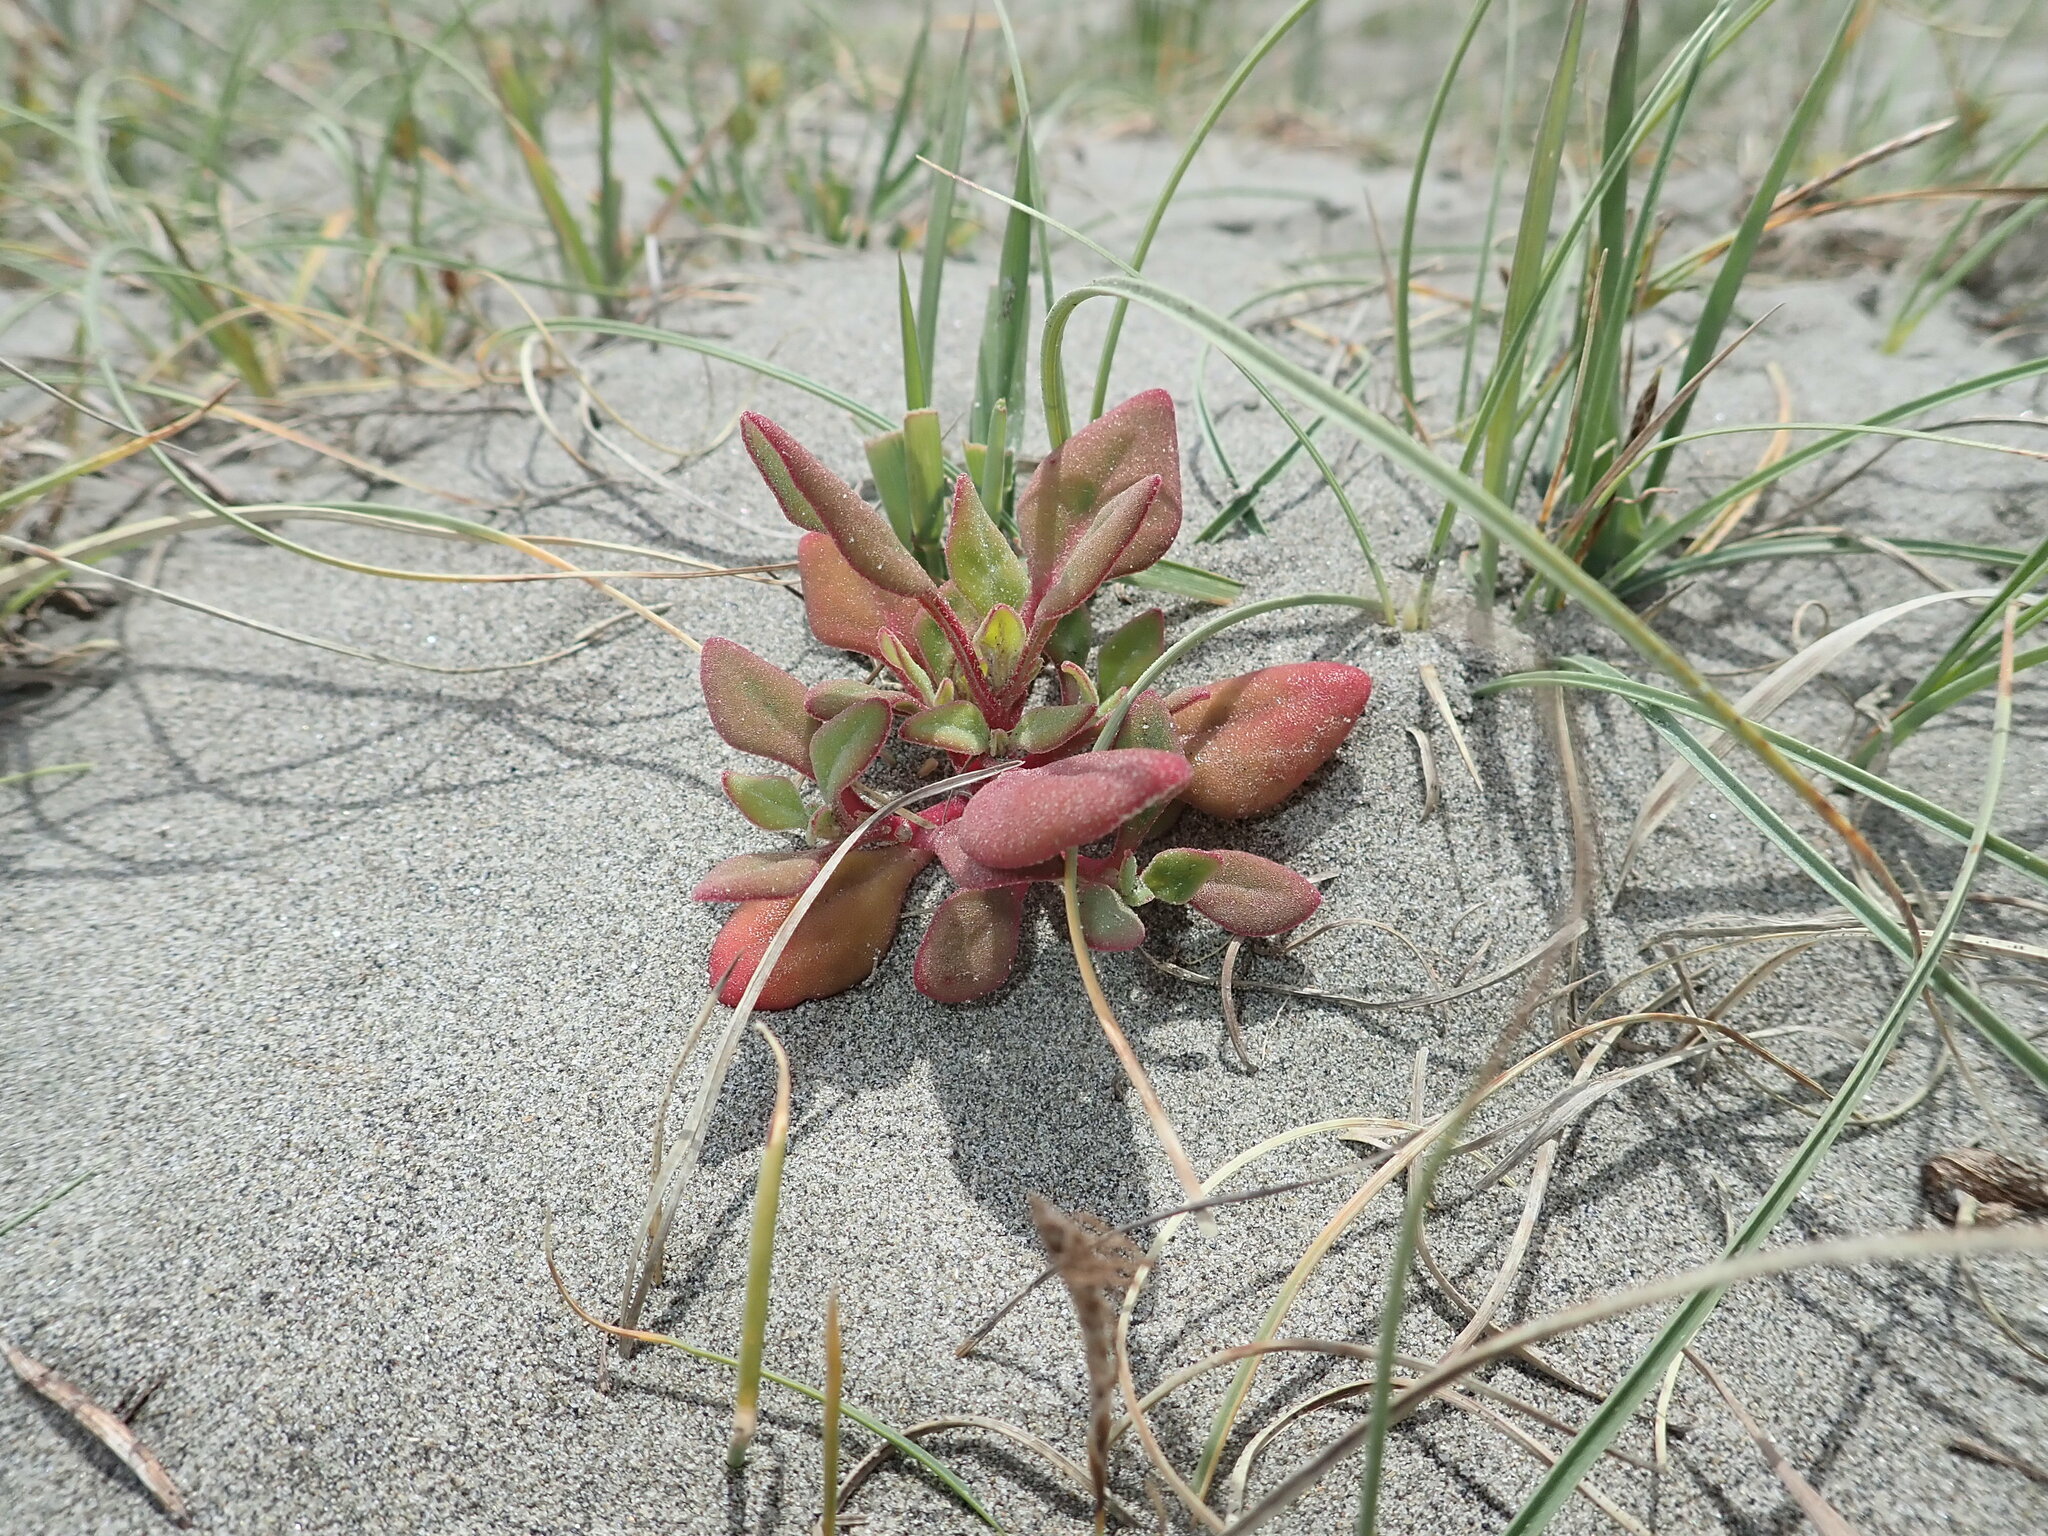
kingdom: Plantae
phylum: Tracheophyta
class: Magnoliopsida
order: Caryophyllales
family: Aizoaceae
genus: Tetragonia
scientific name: Tetragonia implexicoma
